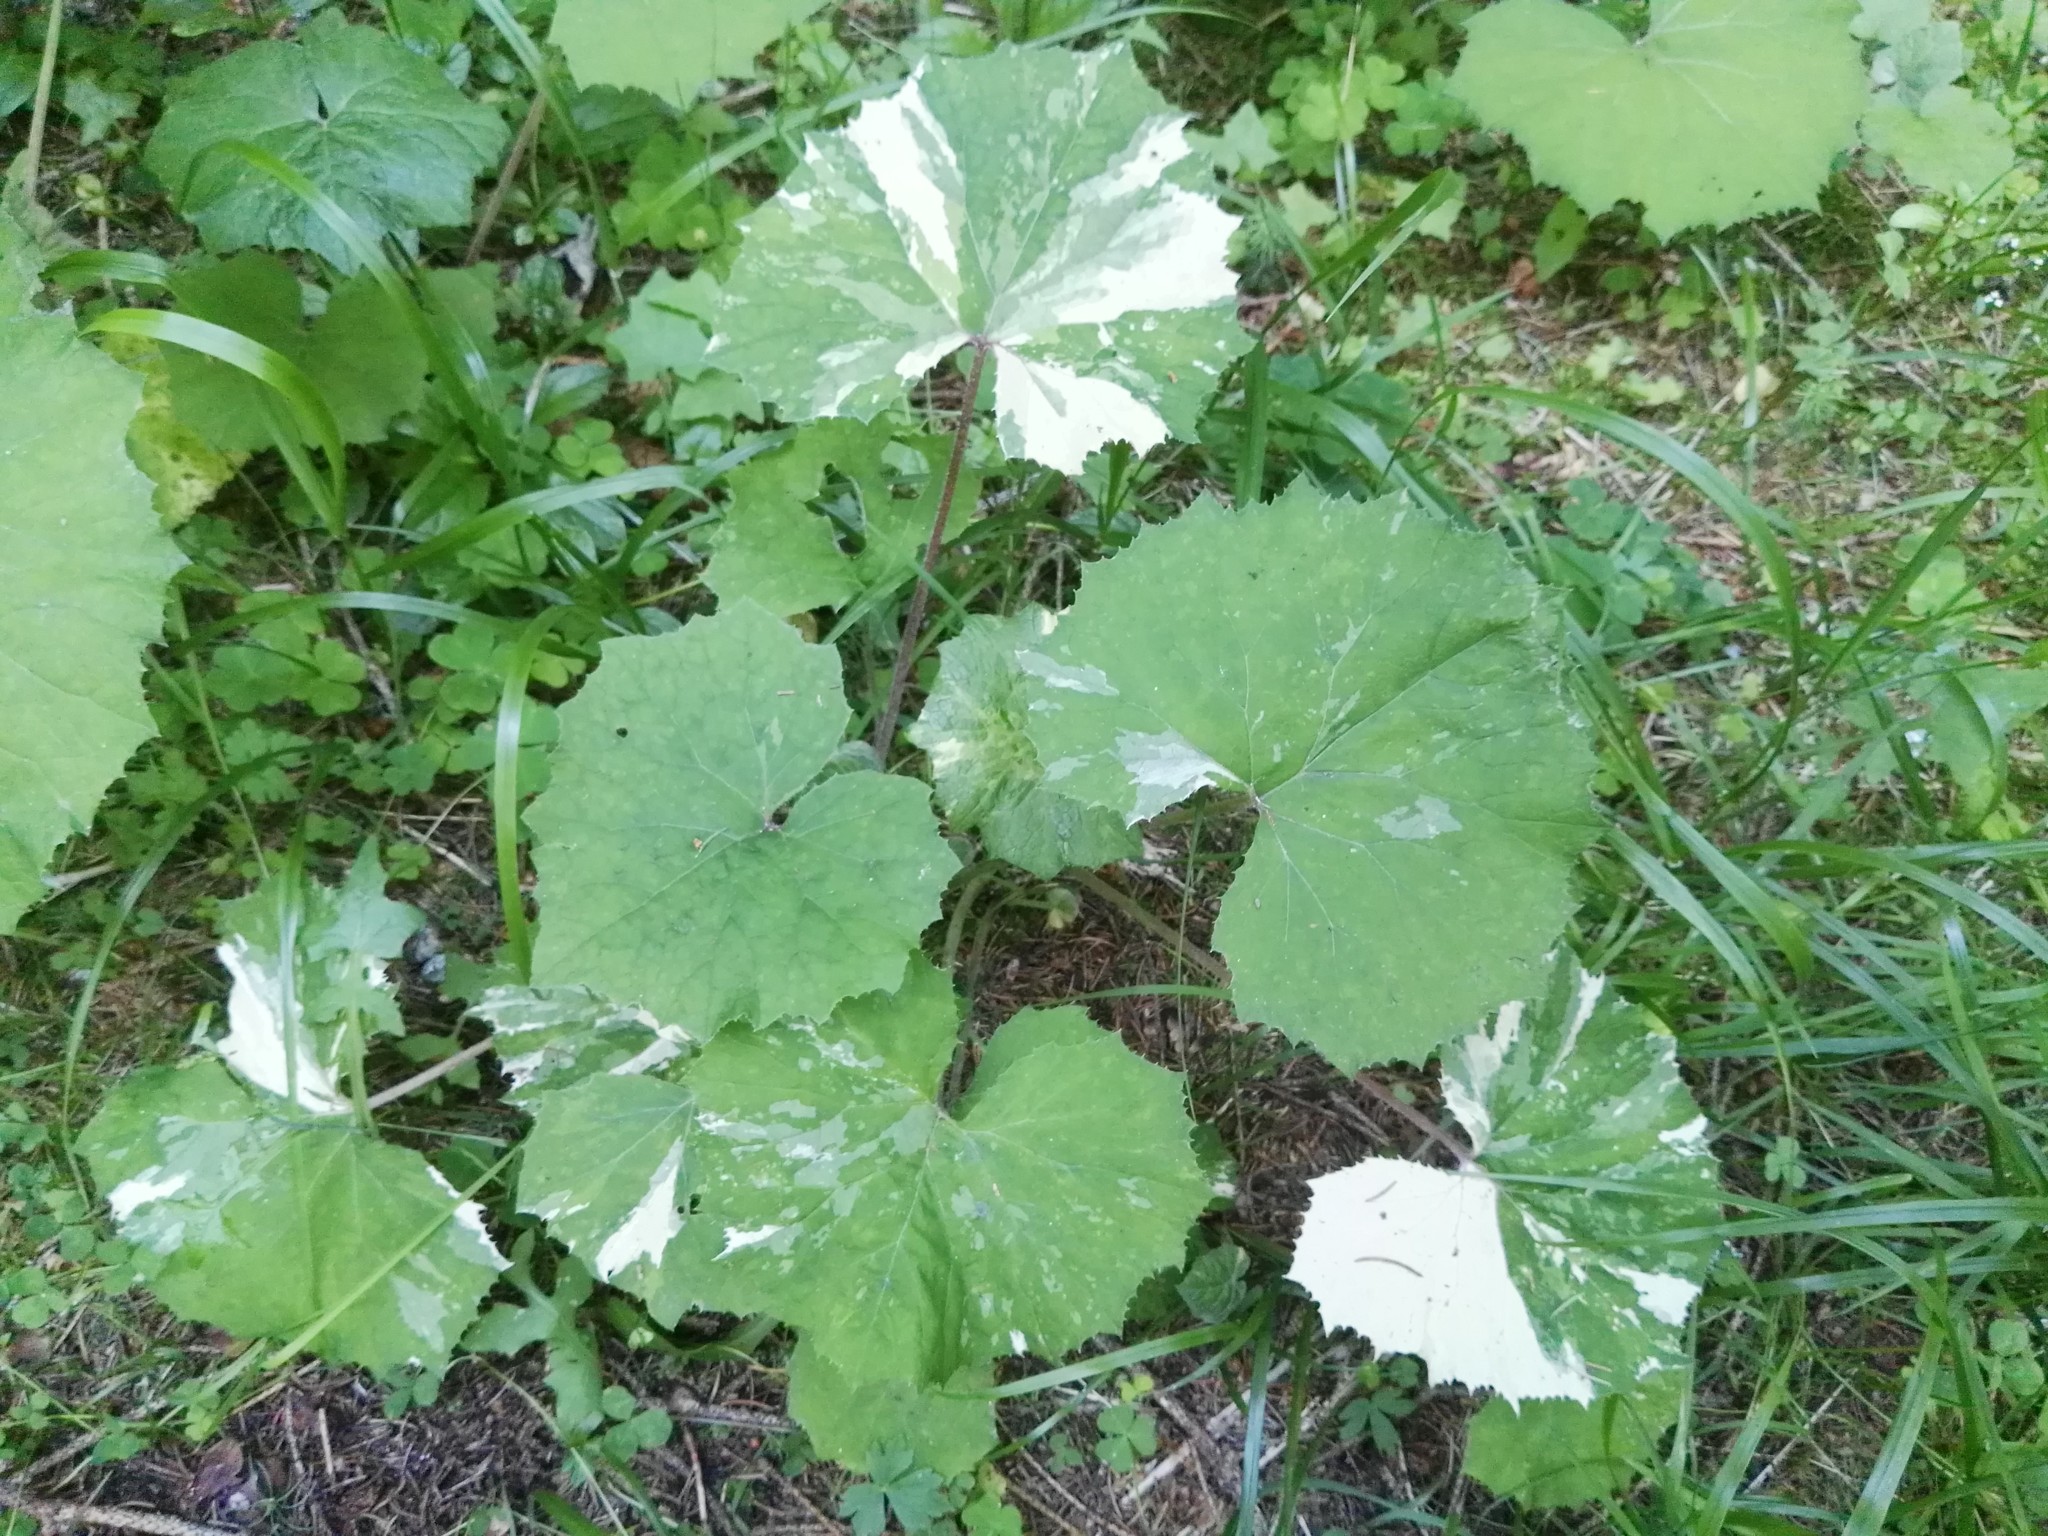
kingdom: Plantae
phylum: Tracheophyta
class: Magnoliopsida
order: Asterales
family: Asteraceae
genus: Tussilago
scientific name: Tussilago farfara
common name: Coltsfoot
